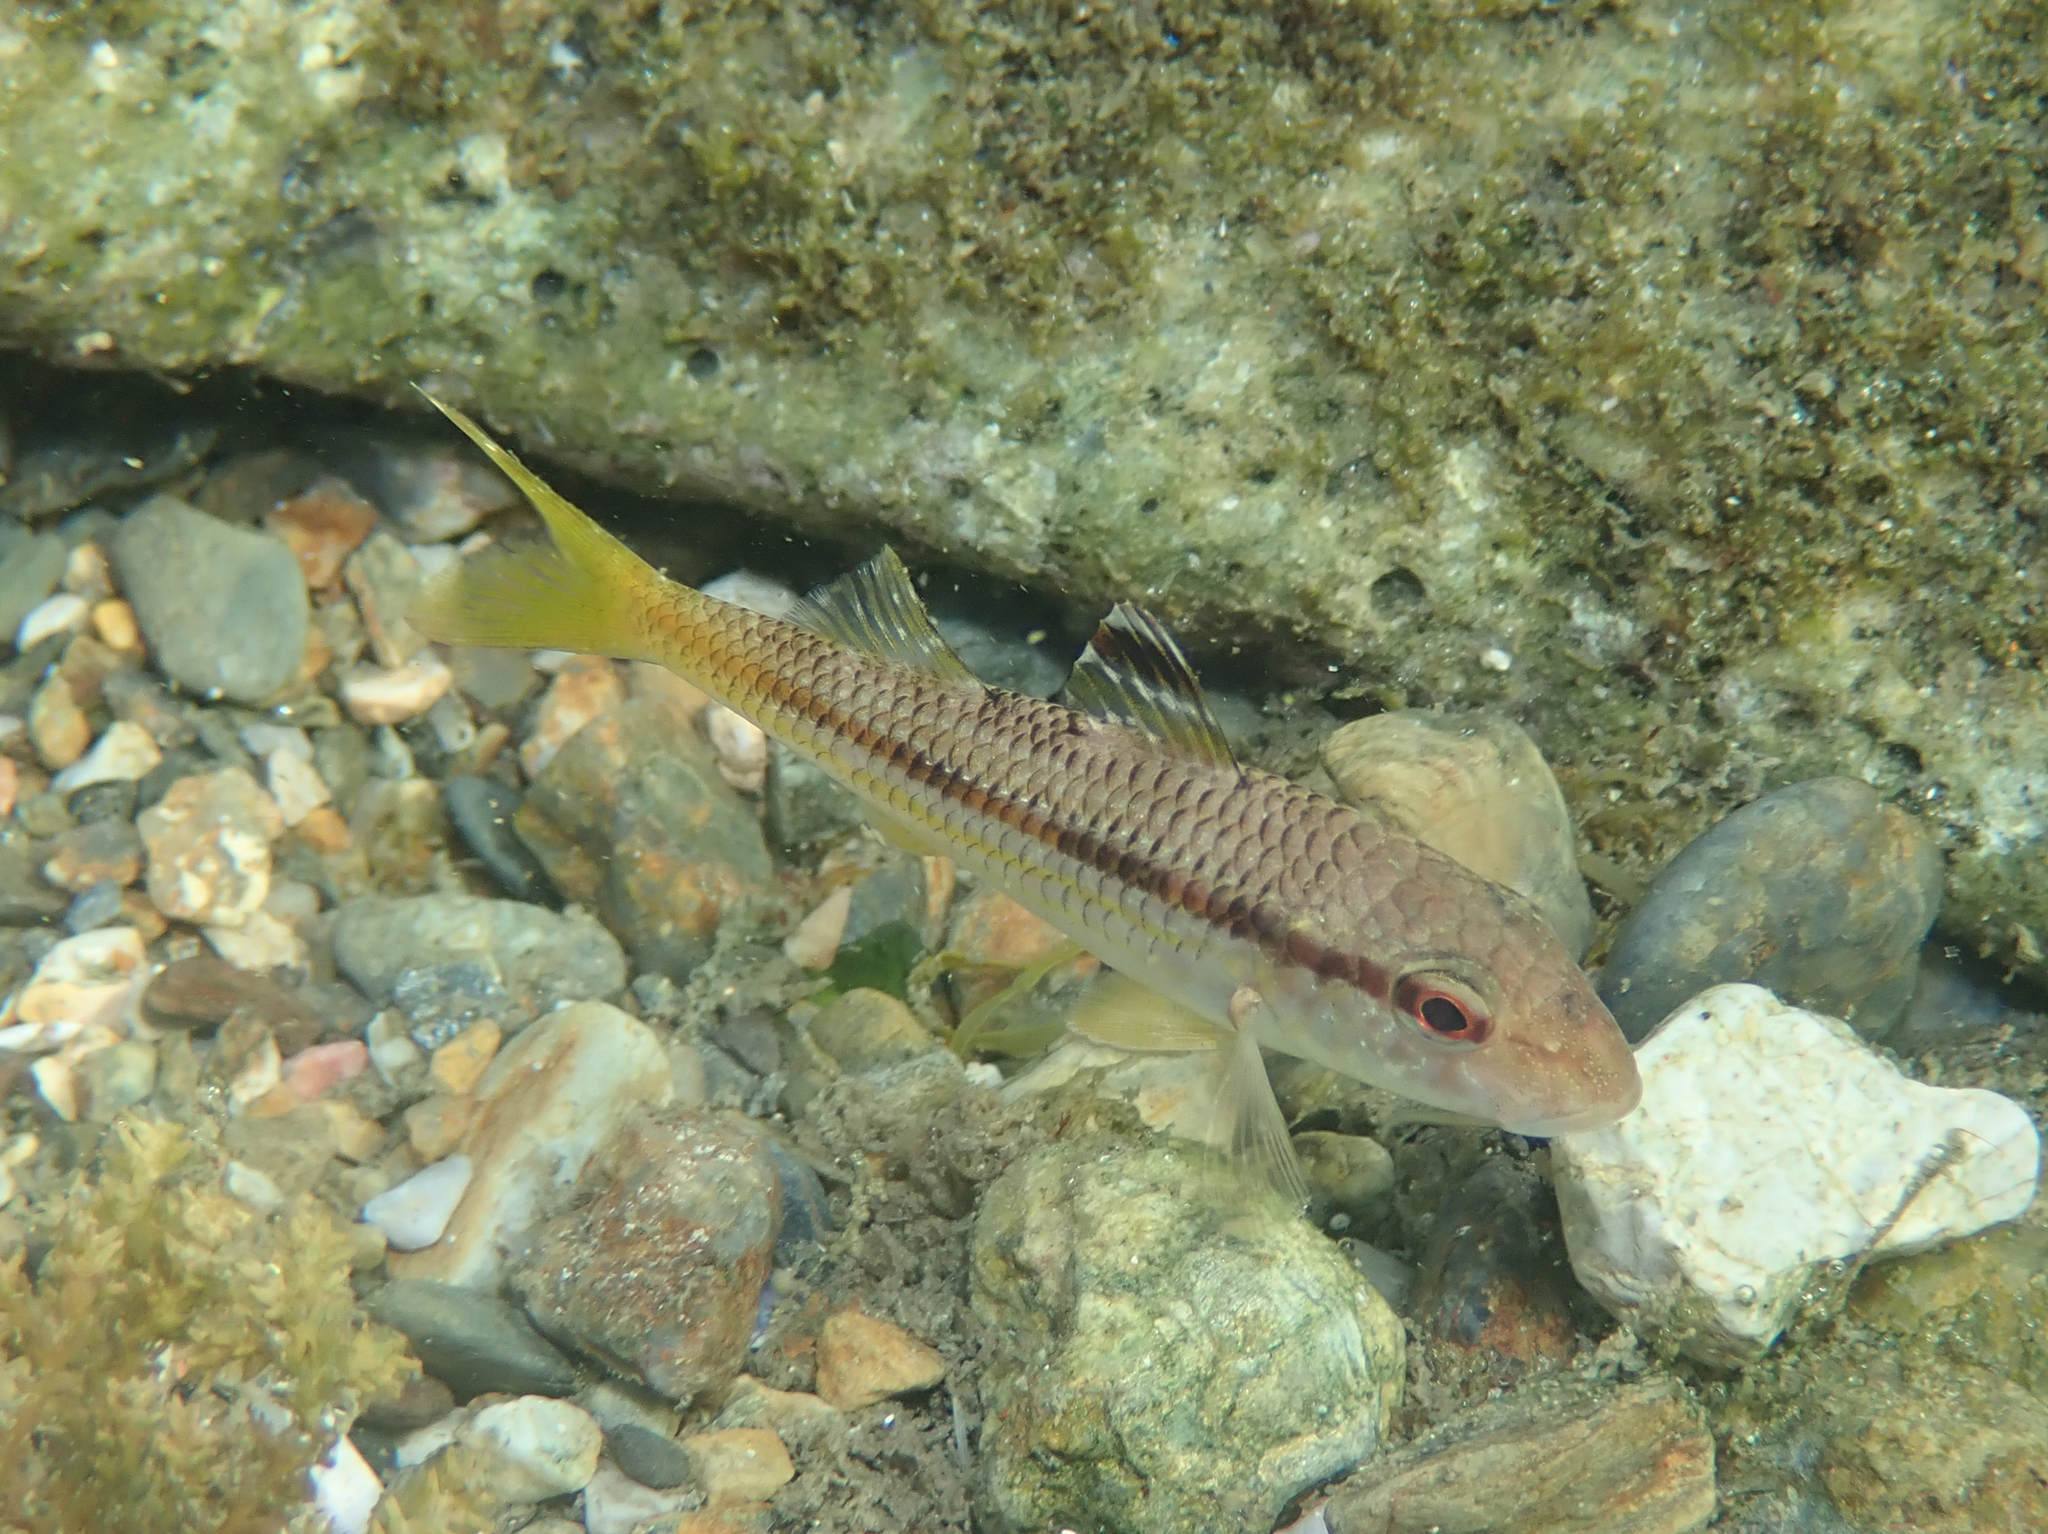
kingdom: Animalia
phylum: Chordata
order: Perciformes
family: Mullidae
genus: Mullus
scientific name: Mullus surmuletus
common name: Red mullet
